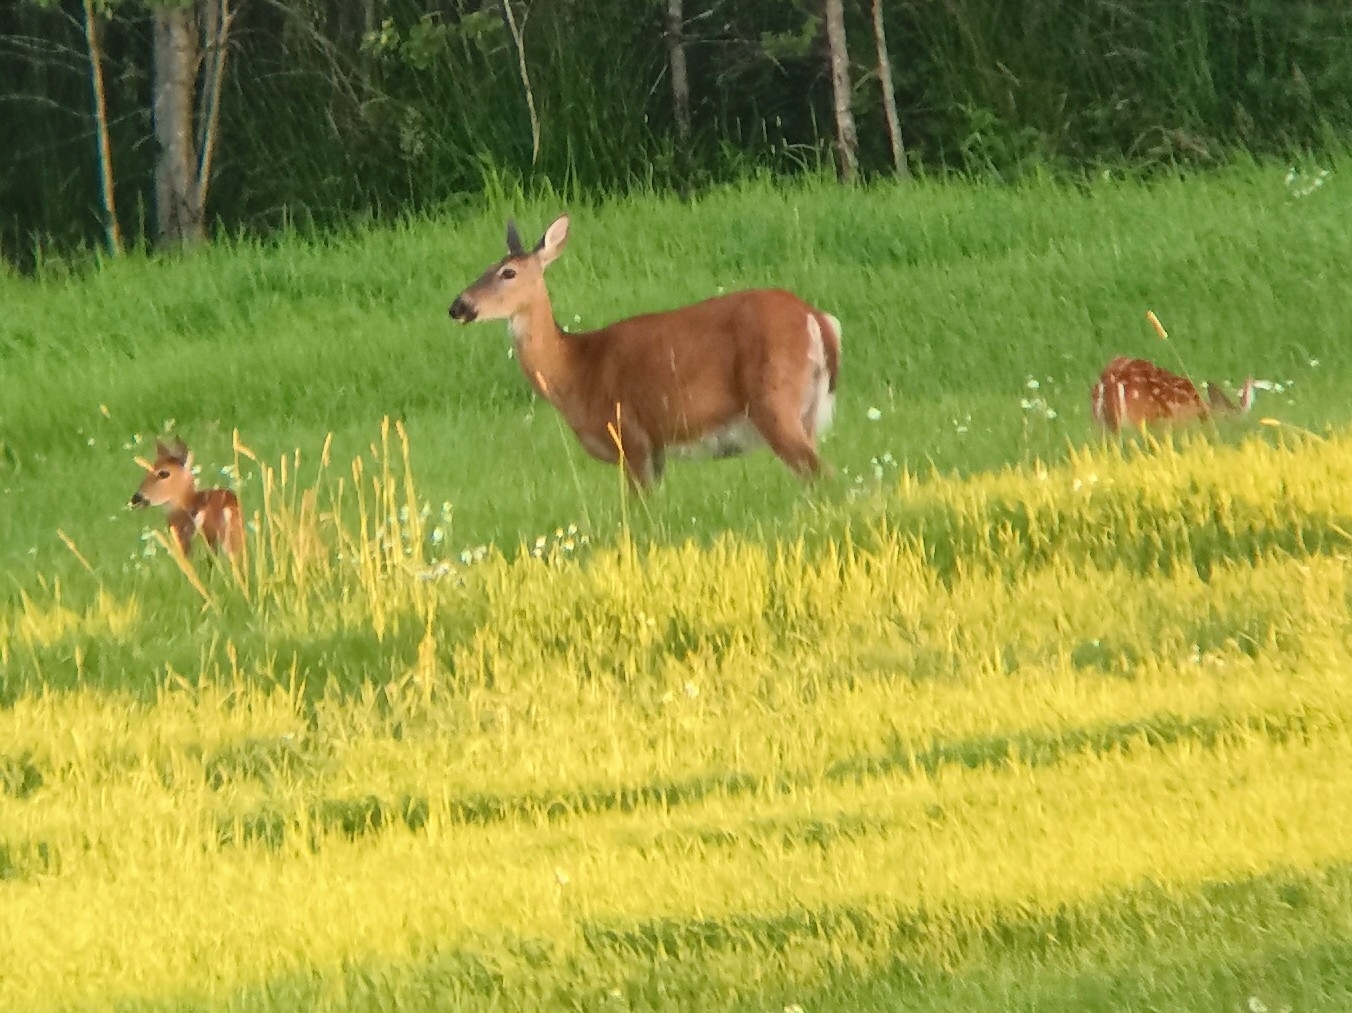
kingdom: Animalia
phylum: Chordata
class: Mammalia
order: Artiodactyla
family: Cervidae
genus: Odocoileus
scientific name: Odocoileus virginianus
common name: White-tailed deer
